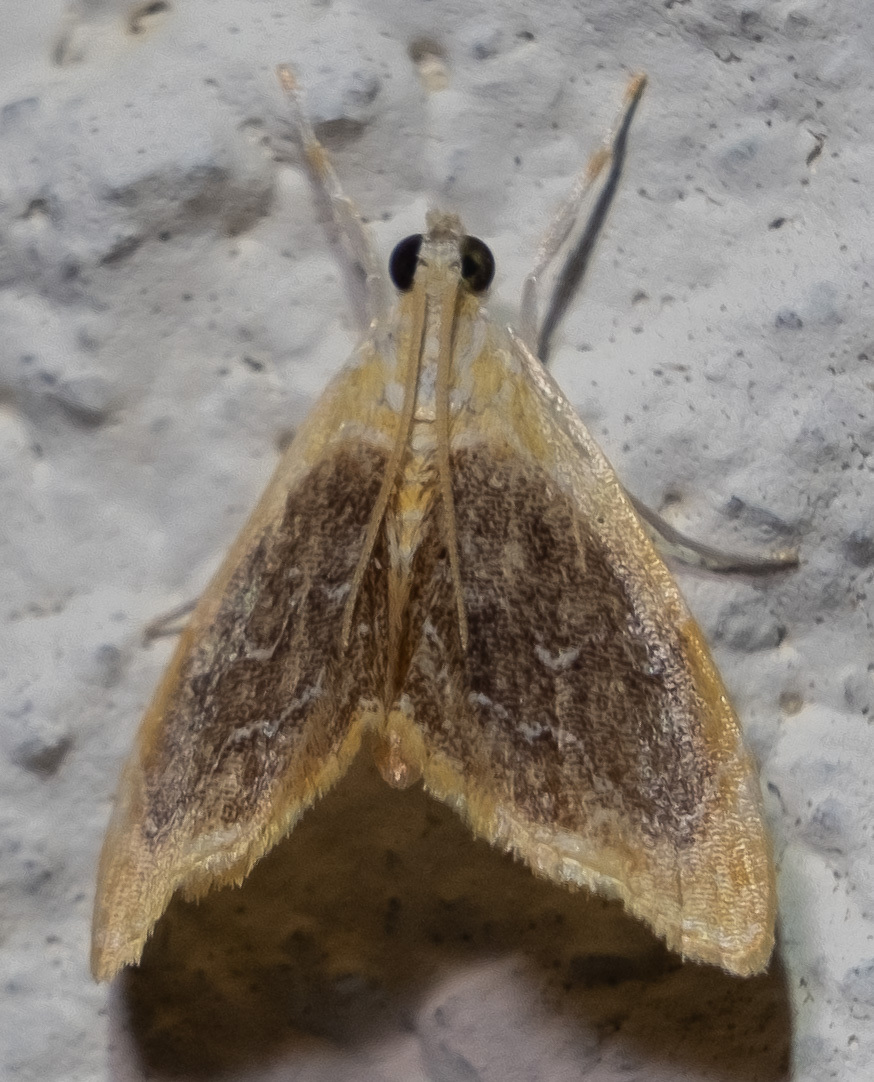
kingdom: Animalia
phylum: Arthropoda
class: Insecta
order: Lepidoptera
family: Crambidae
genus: Glaphyria
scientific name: Glaphyria fulminalis
